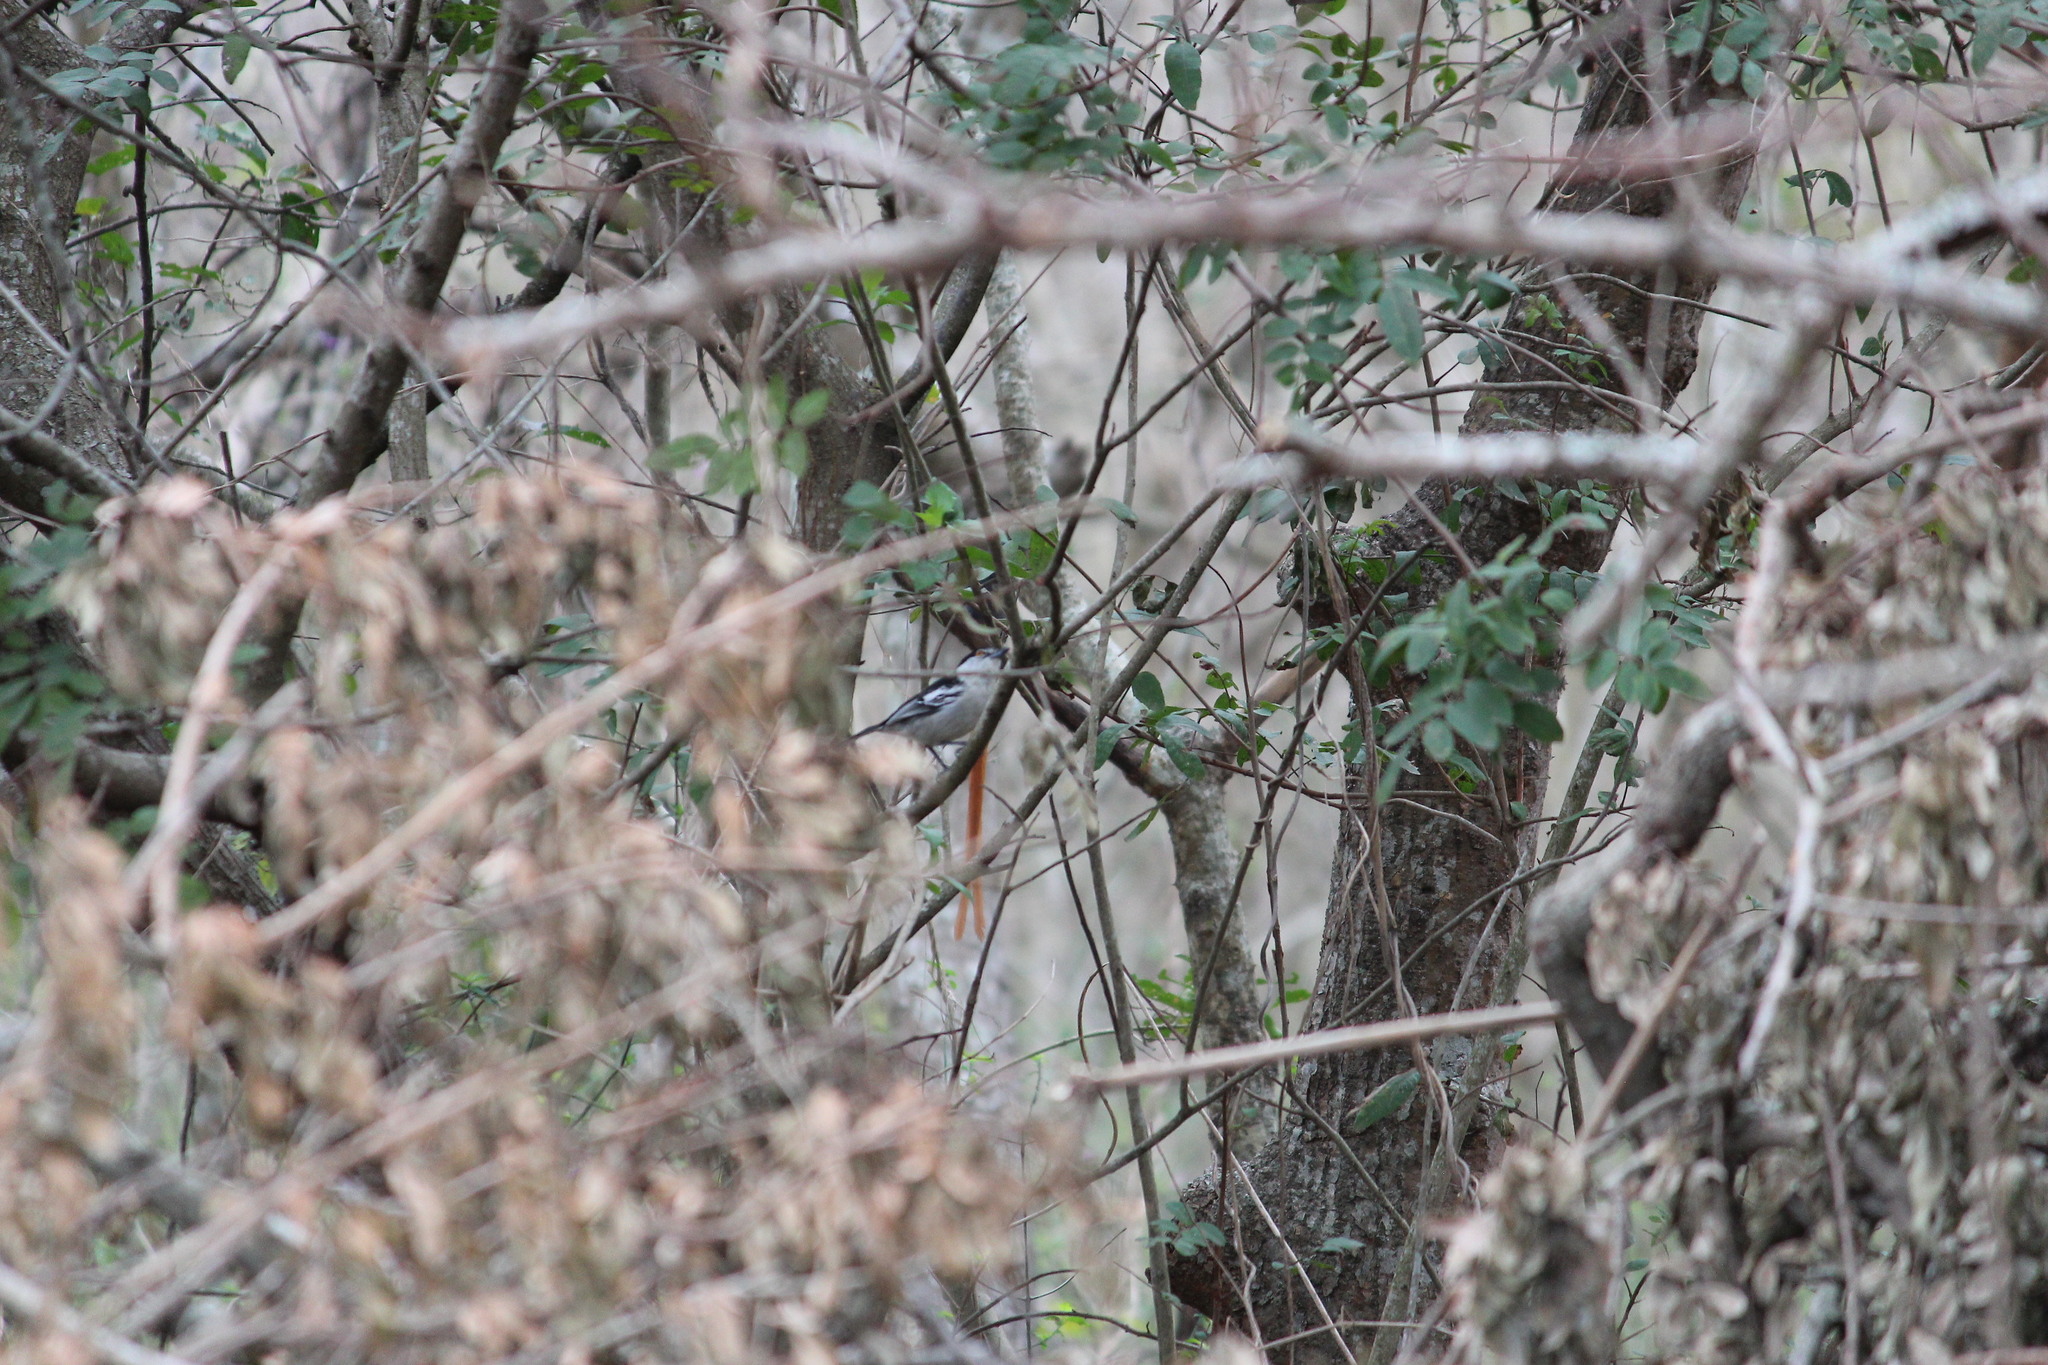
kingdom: Animalia
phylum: Chordata
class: Aves
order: Passeriformes
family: Malaconotidae
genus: Dryoscopus
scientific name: Dryoscopus cubla
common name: Black-backed puffback
